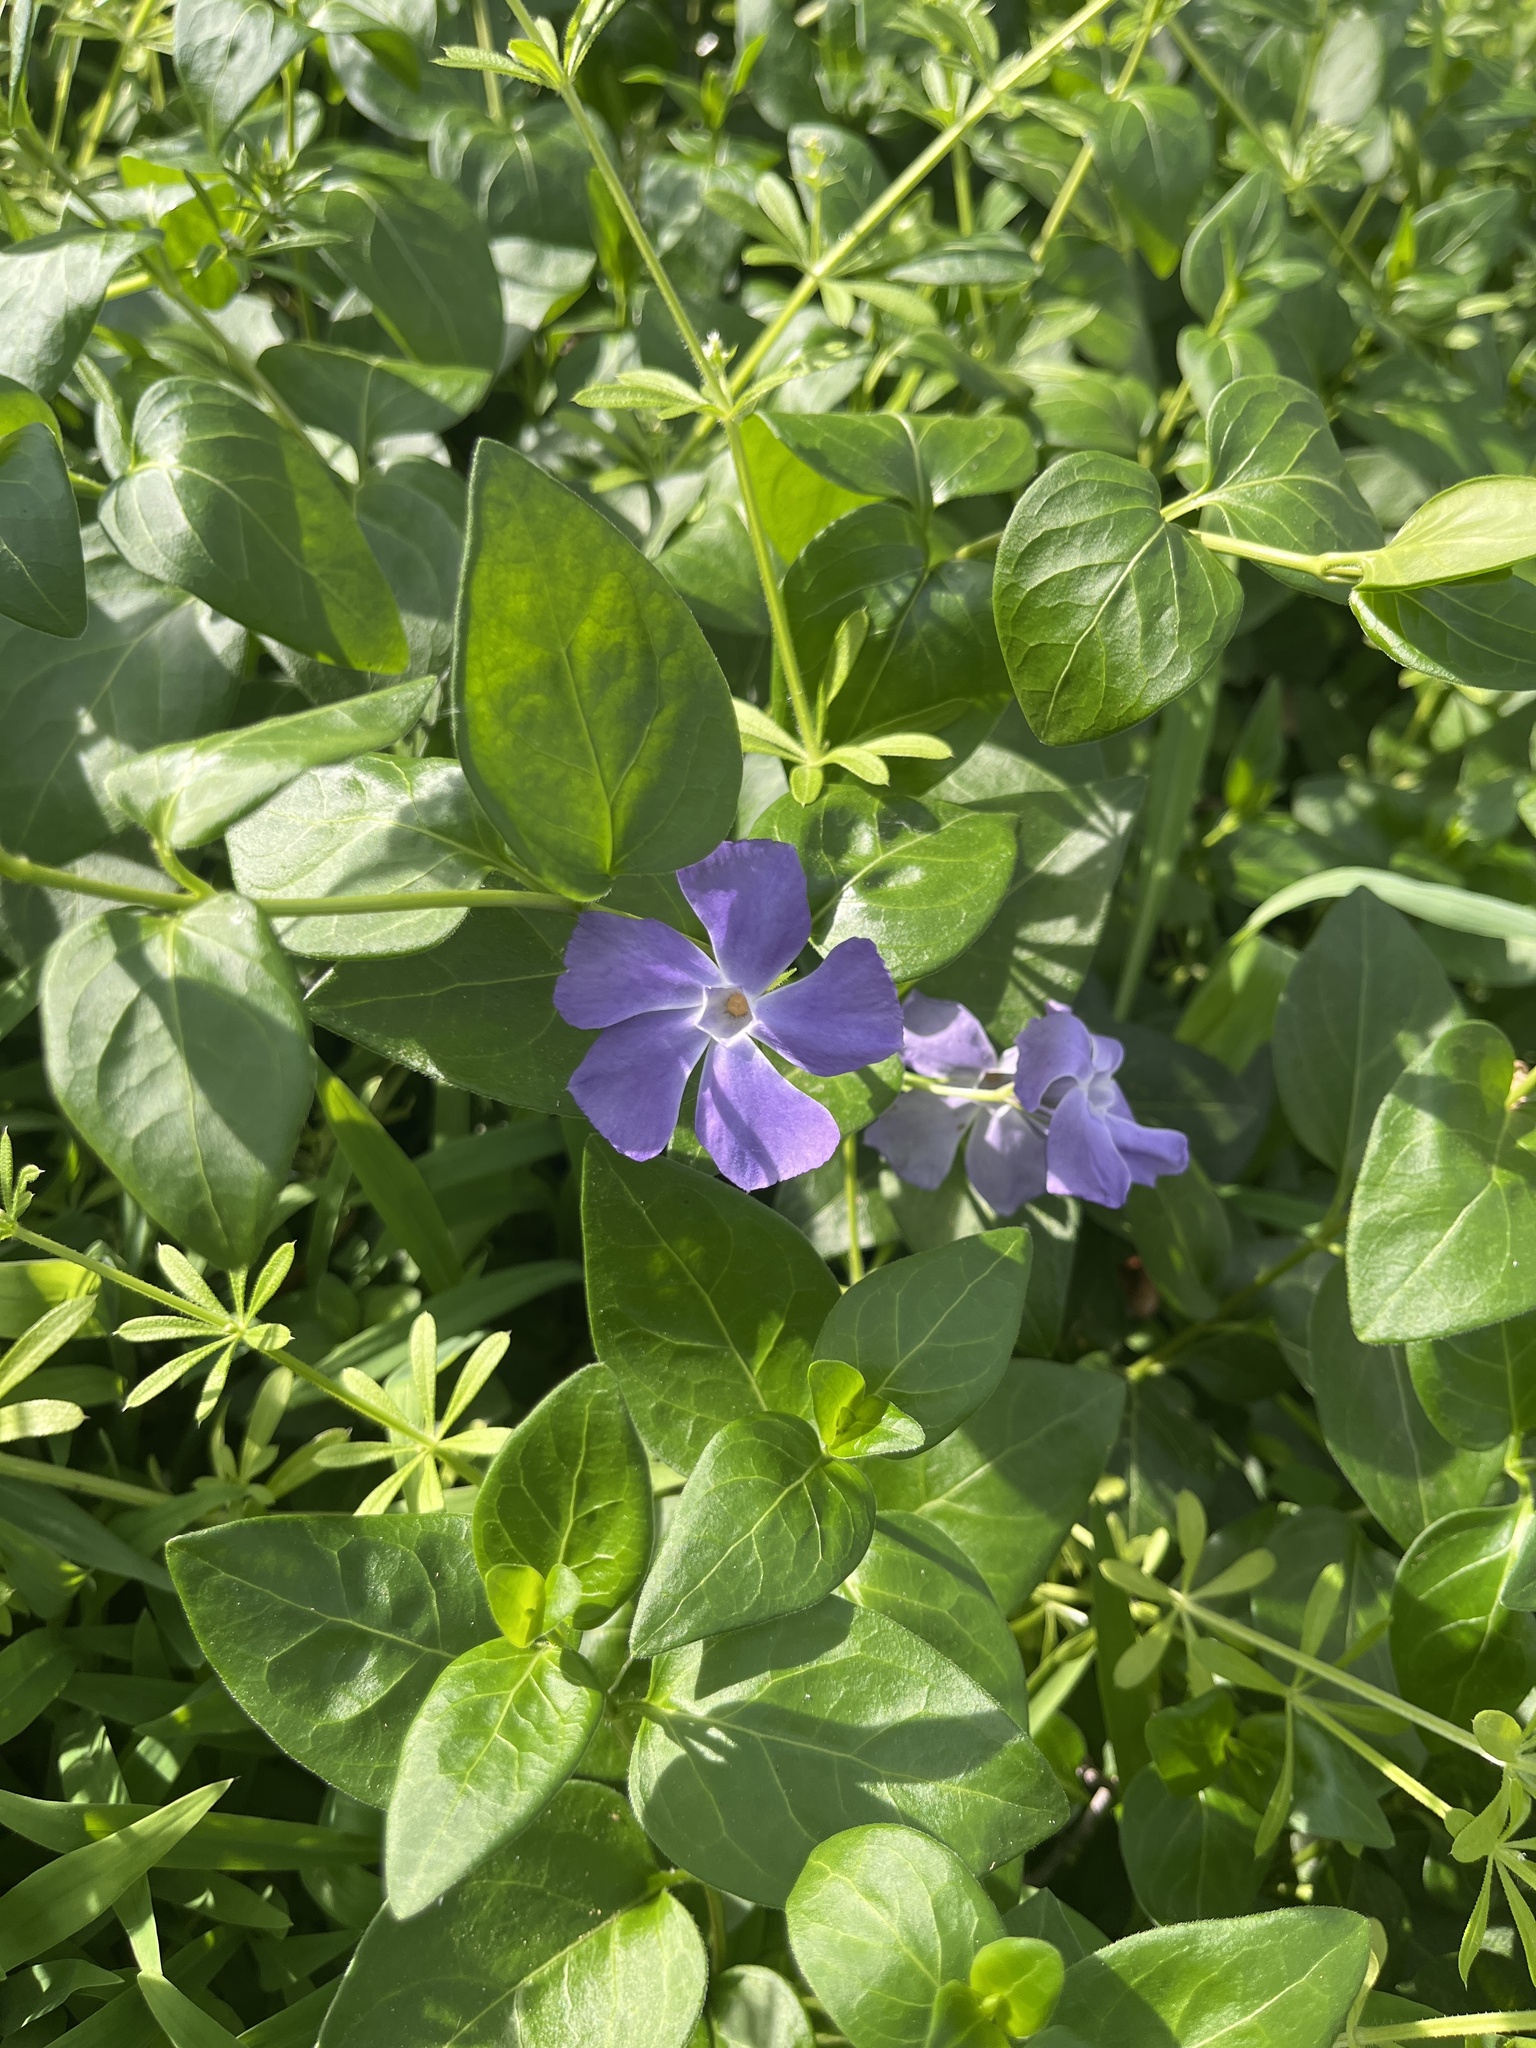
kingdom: Plantae
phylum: Tracheophyta
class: Magnoliopsida
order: Gentianales
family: Apocynaceae
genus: Vinca
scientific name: Vinca major
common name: Greater periwinkle
